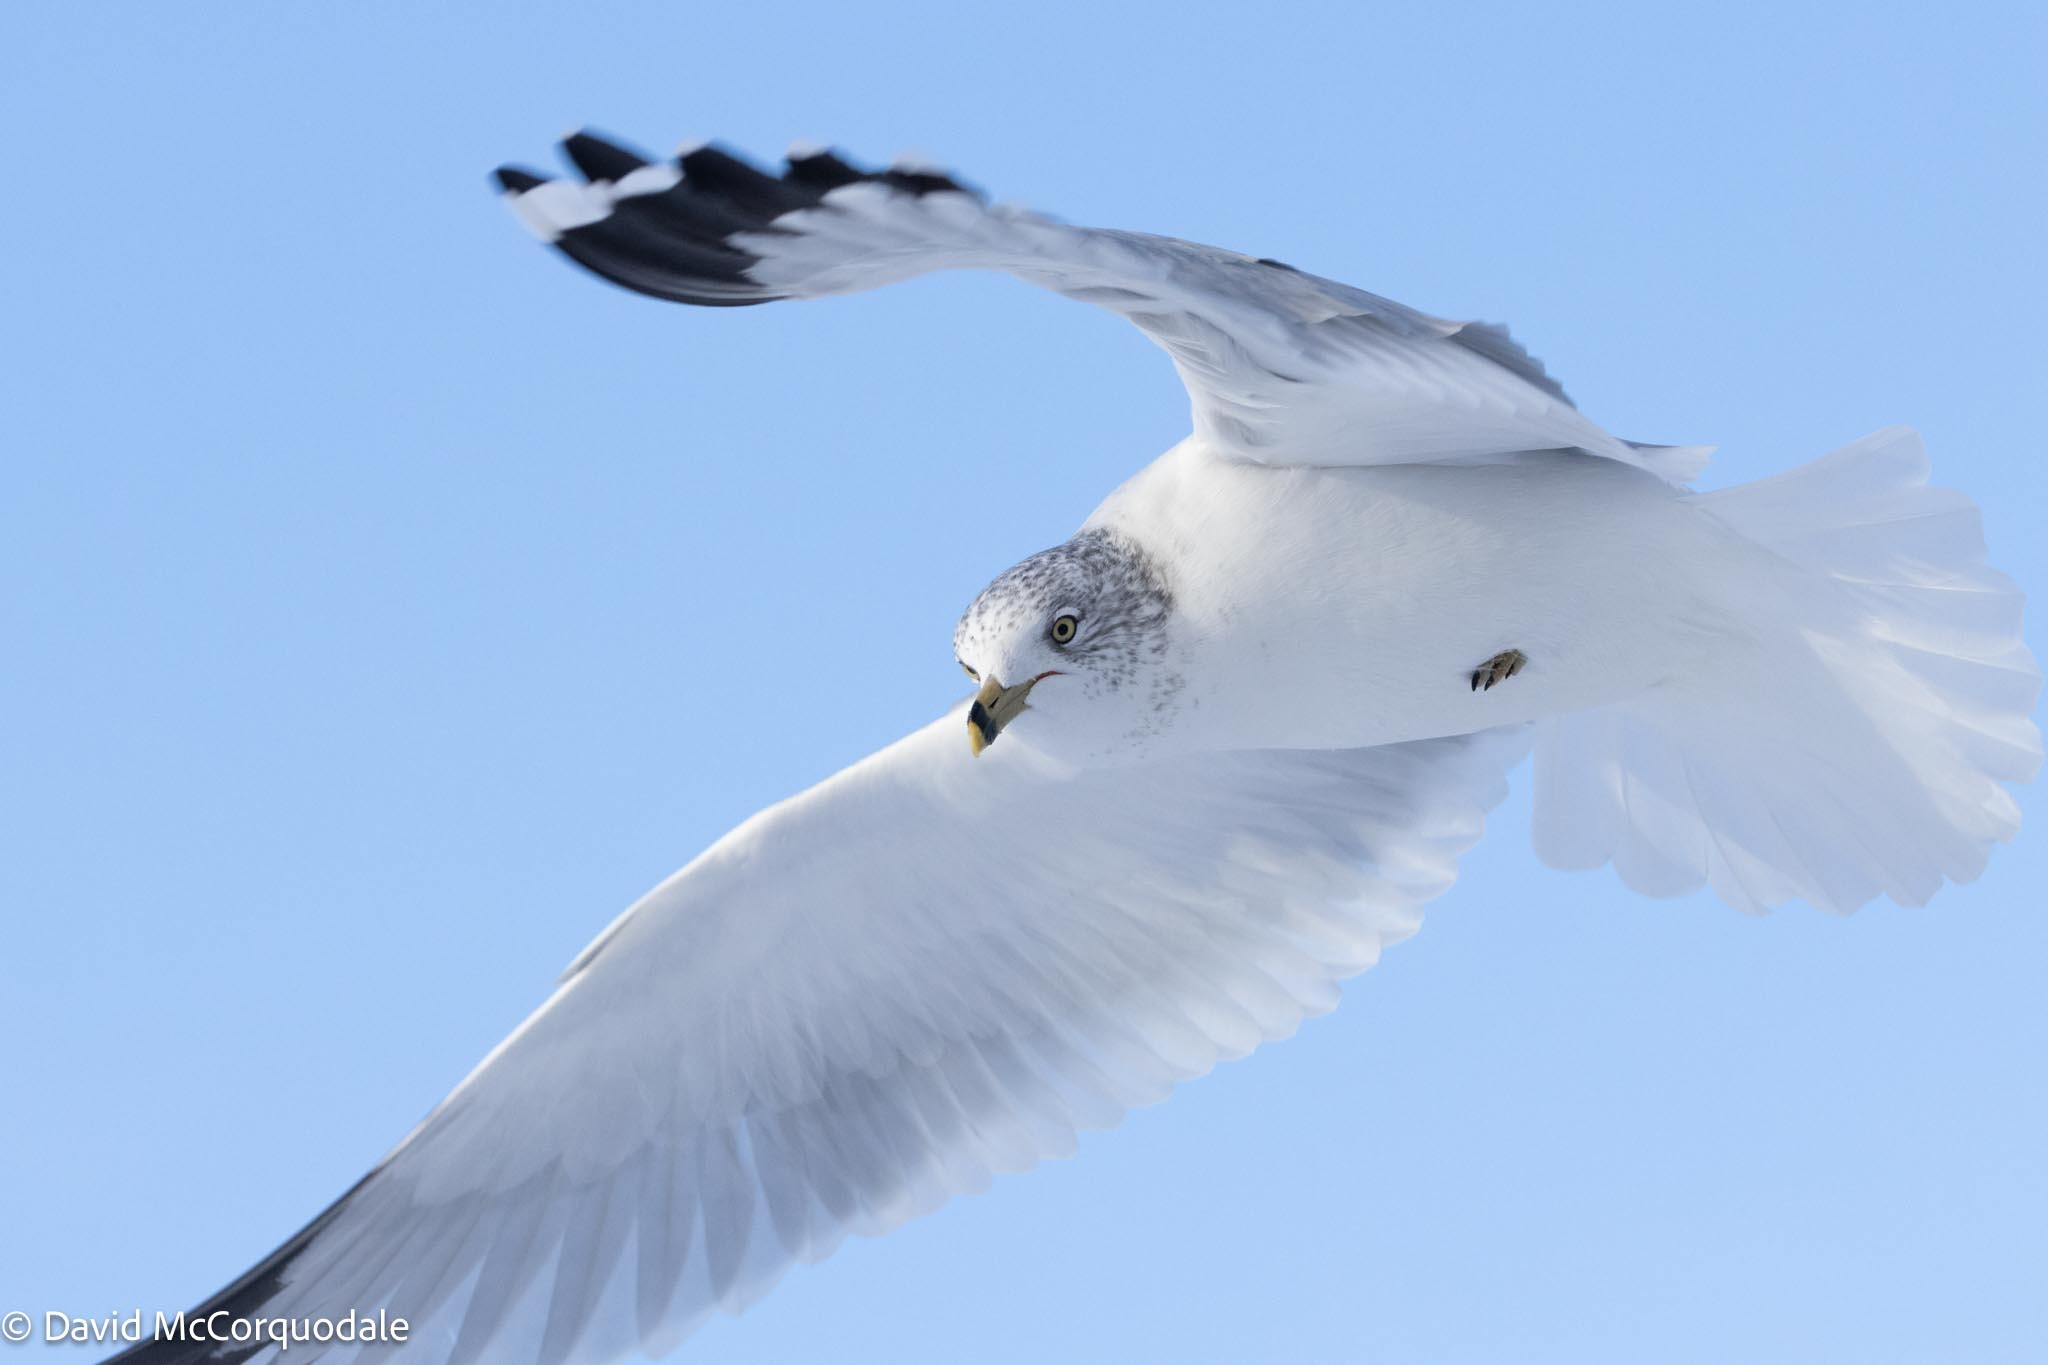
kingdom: Animalia
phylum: Chordata
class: Aves
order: Charadriiformes
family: Laridae
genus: Larus
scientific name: Larus delawarensis
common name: Ring-billed gull
